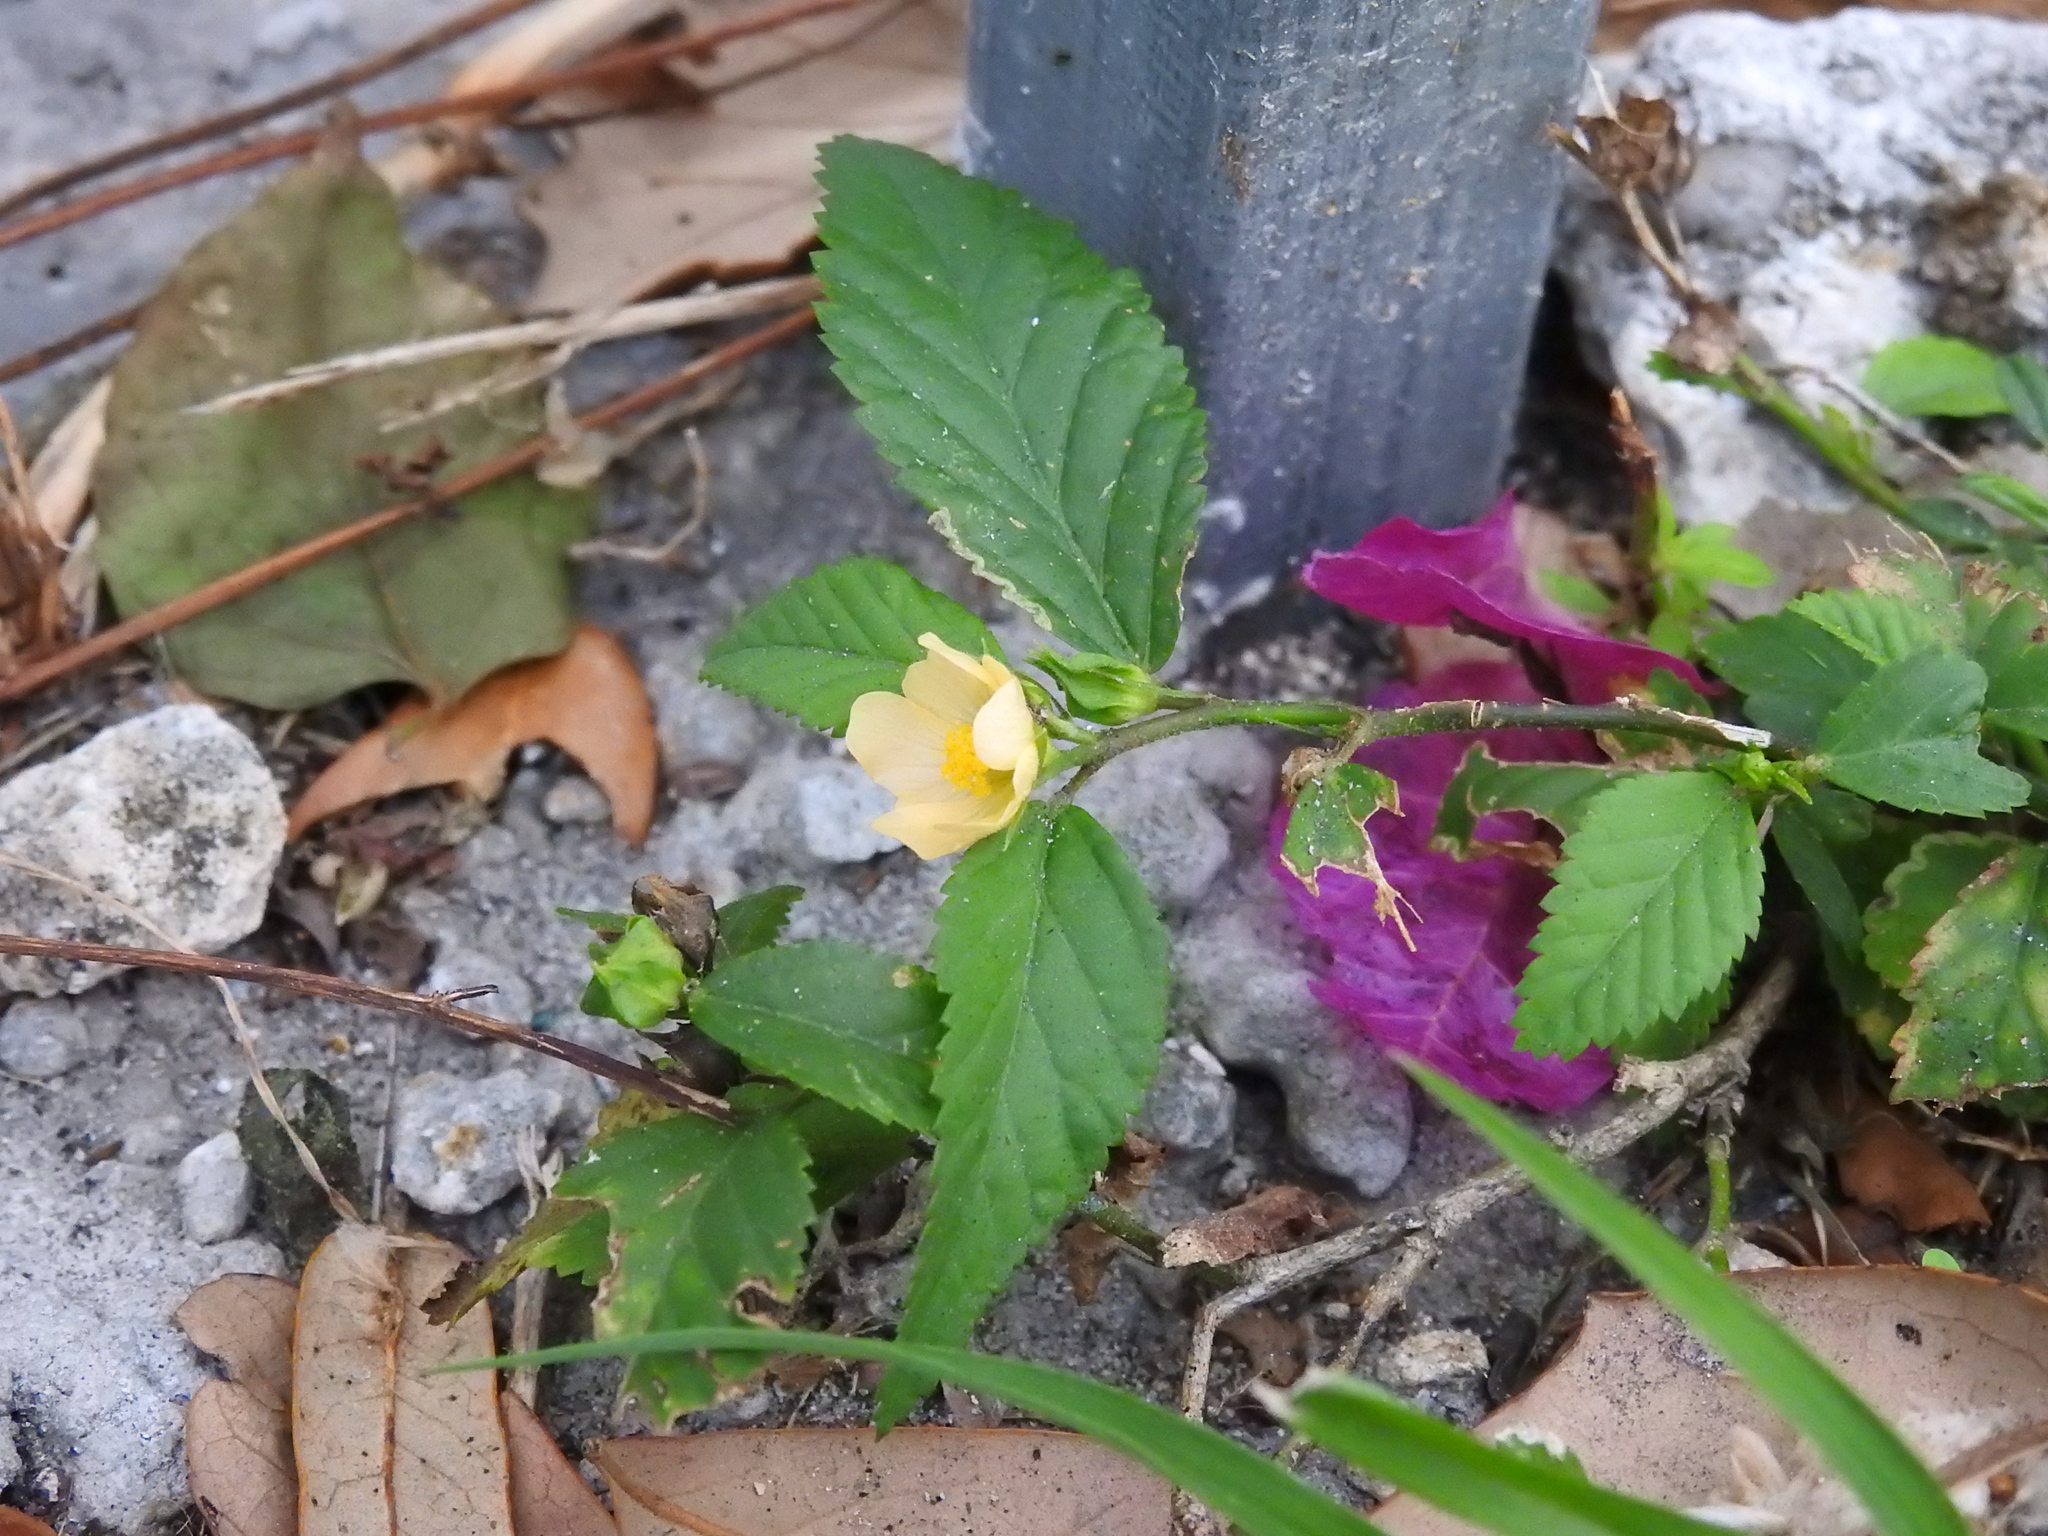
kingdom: Plantae
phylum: Tracheophyta
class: Magnoliopsida
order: Malvales
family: Malvaceae
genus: Sida
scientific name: Sida ulmifolia
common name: Broom weed
